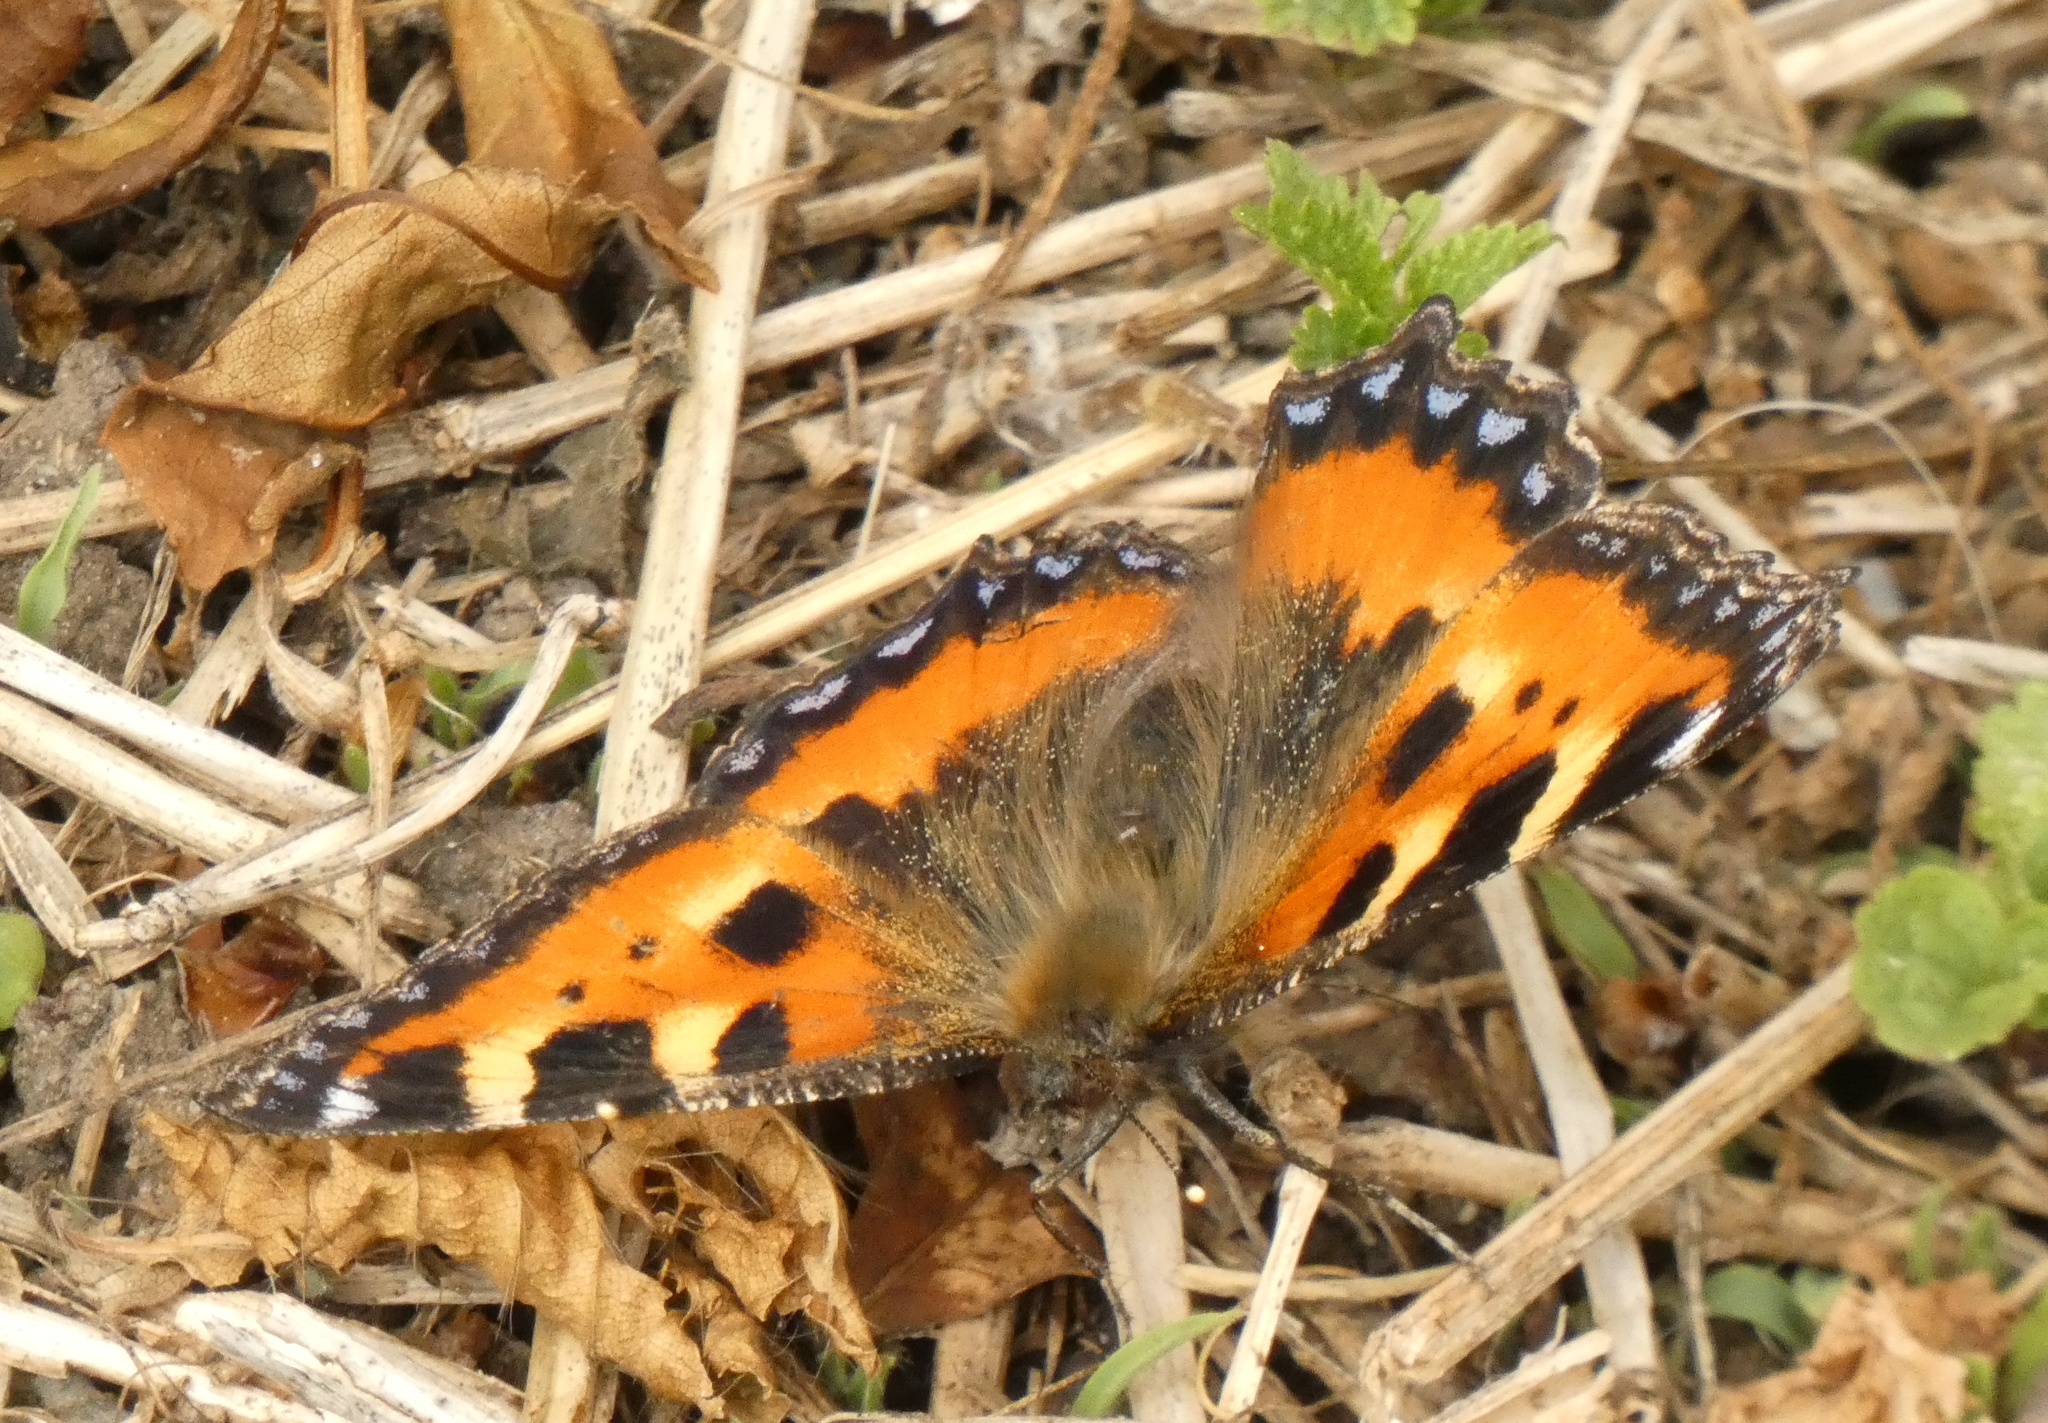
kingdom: Animalia
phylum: Arthropoda
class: Insecta
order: Lepidoptera
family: Nymphalidae
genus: Aglais
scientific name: Aglais urticae
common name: Small tortoiseshell
